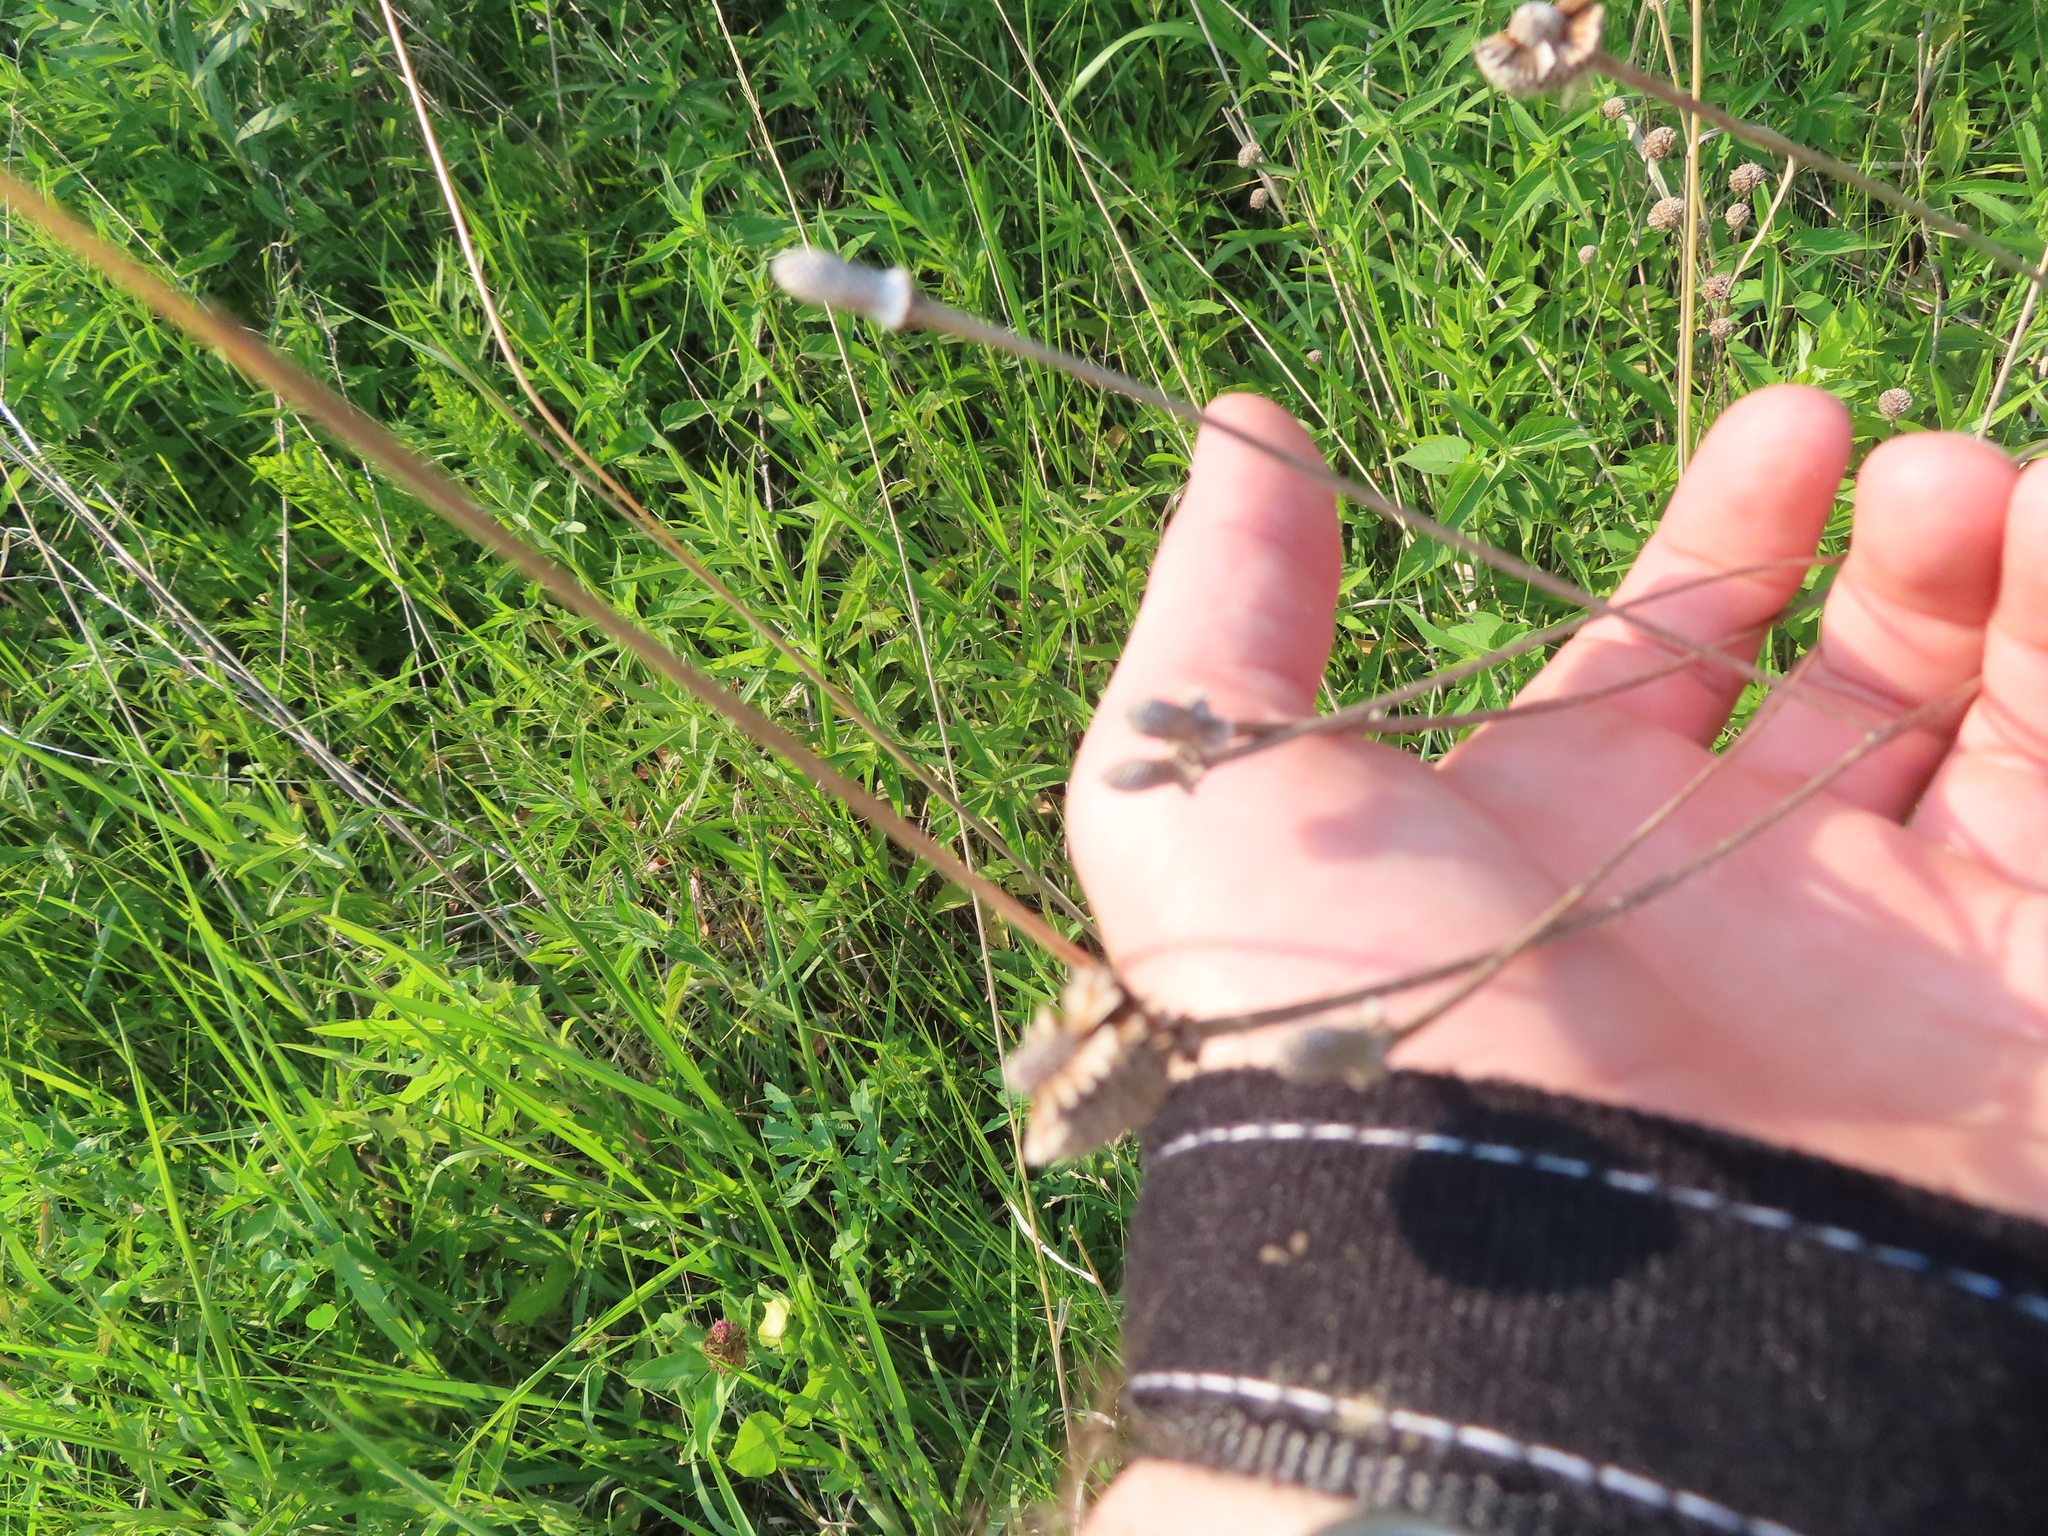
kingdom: Plantae
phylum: Tracheophyta
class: Magnoliopsida
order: Asterales
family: Asteraceae
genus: Ratibida
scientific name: Ratibida pinnata
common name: Drooping prairie-coneflower
